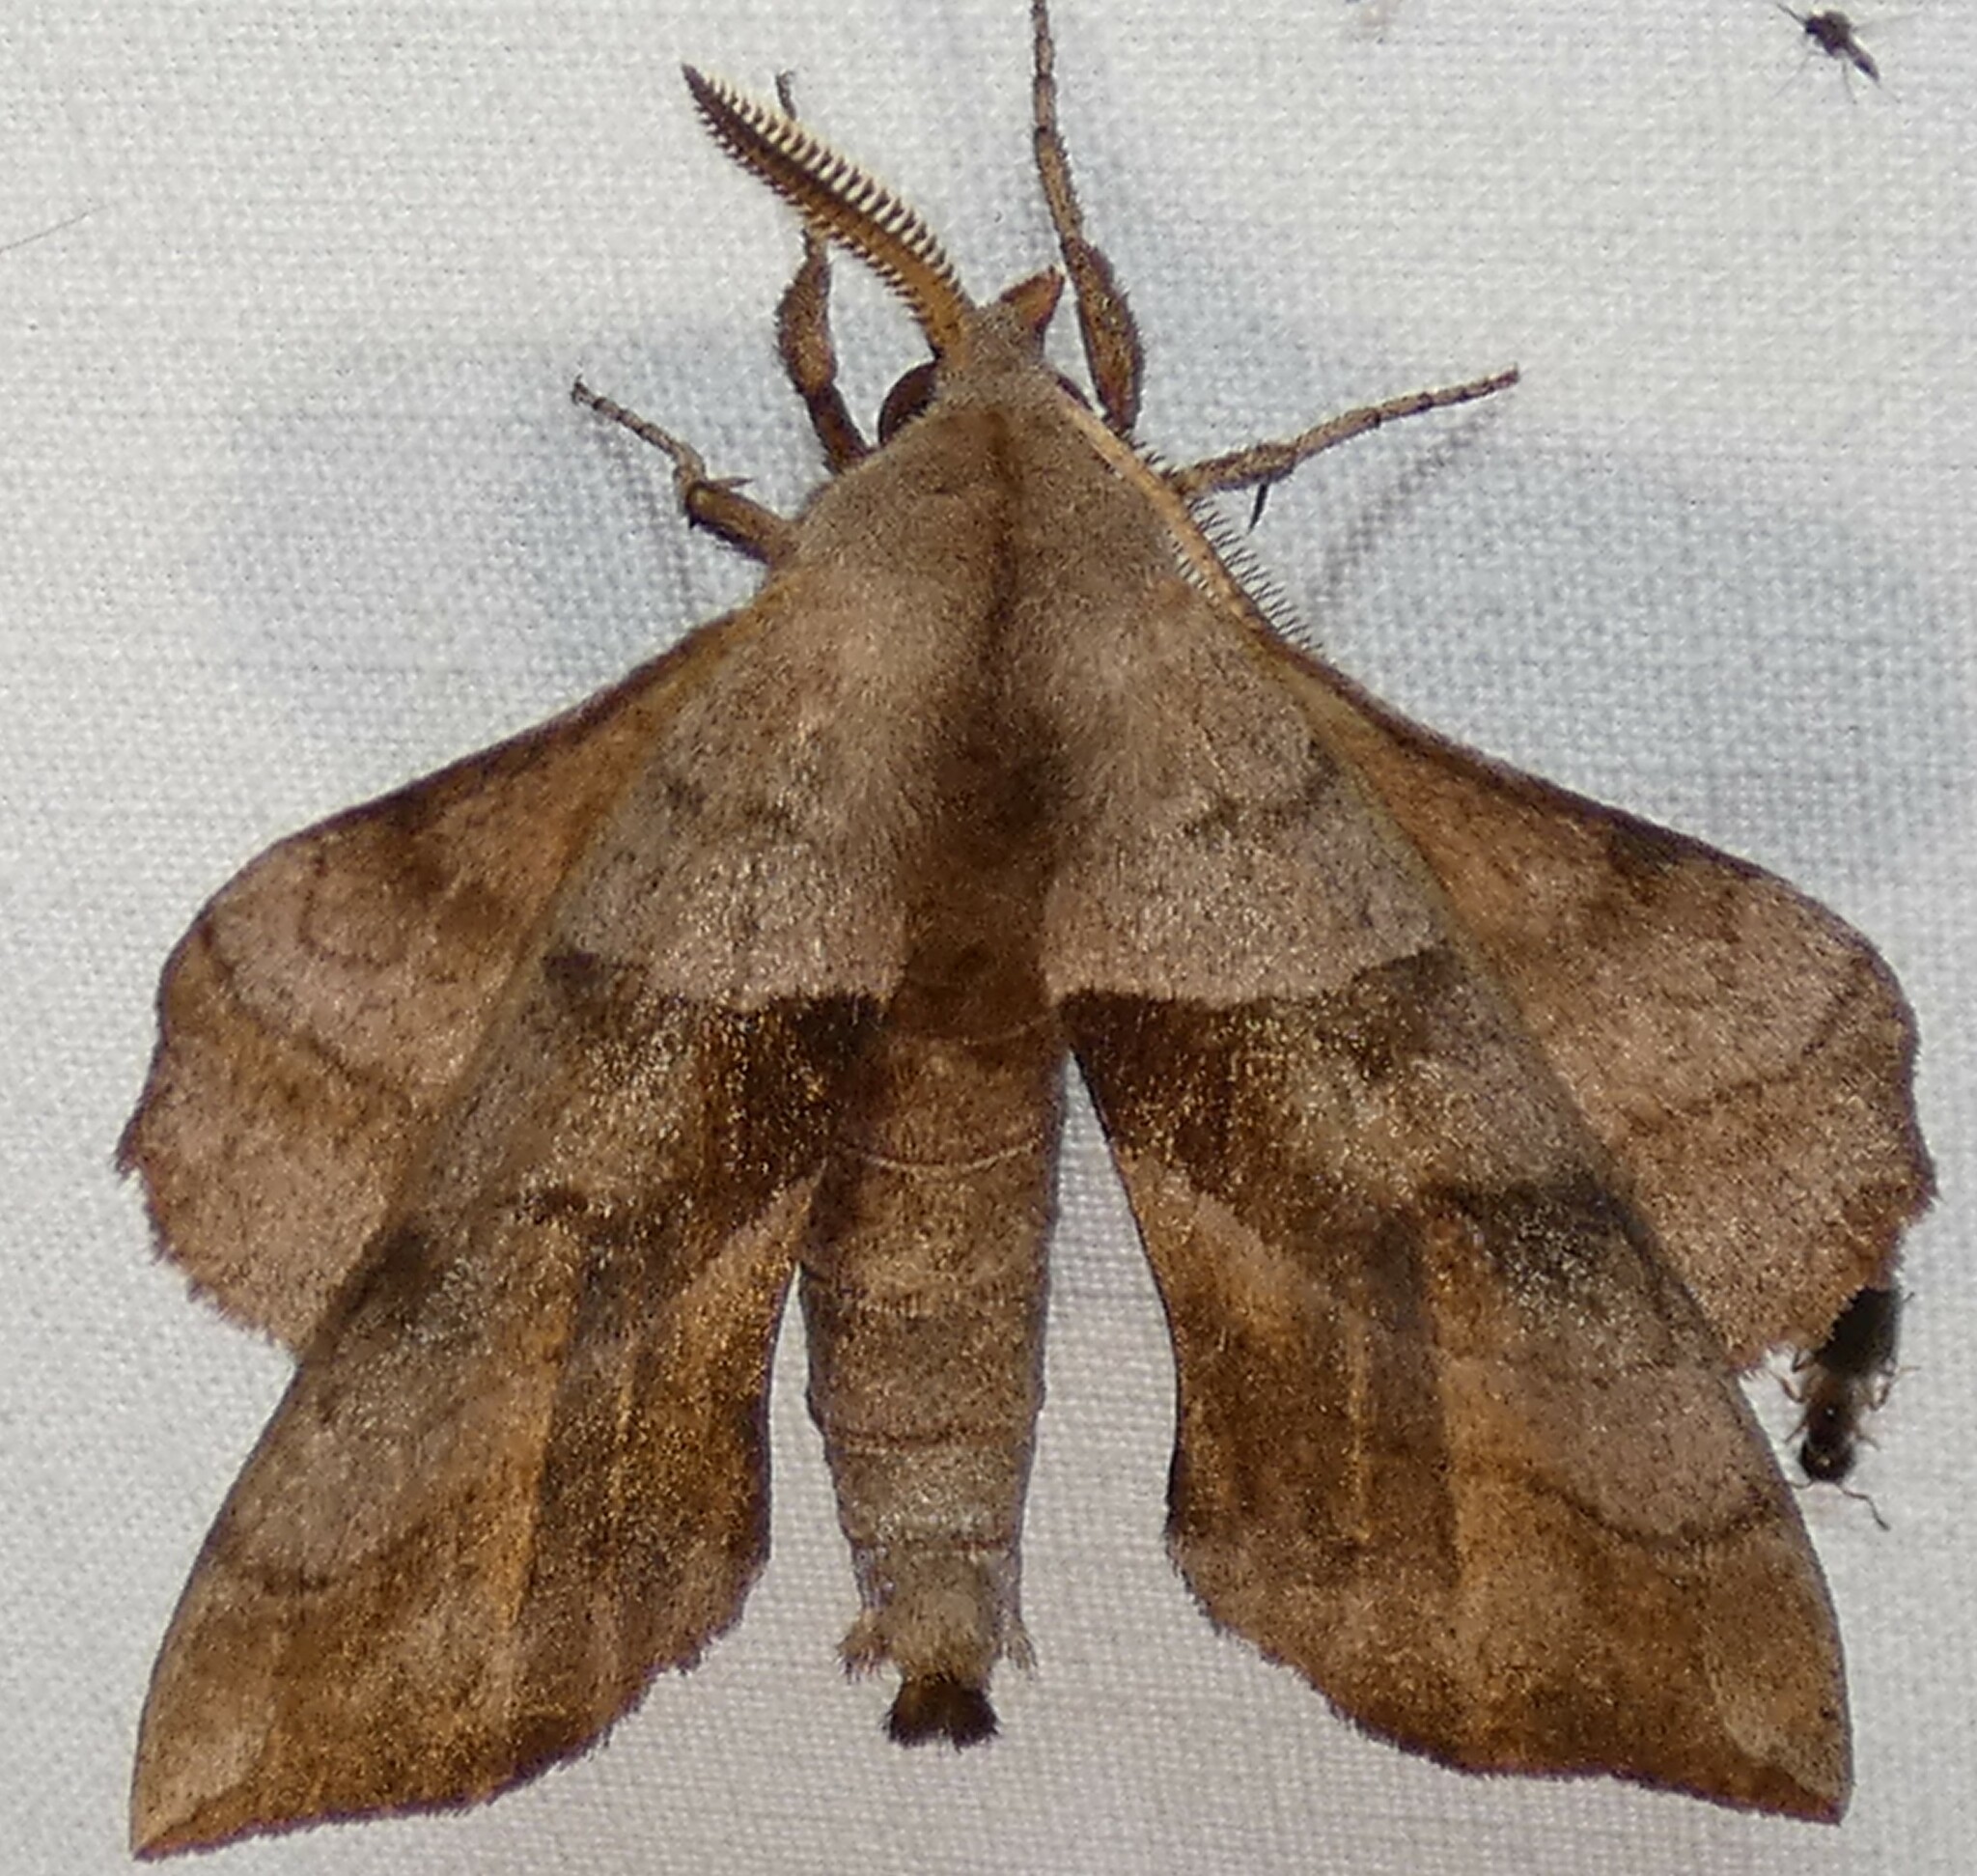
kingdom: Animalia
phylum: Arthropoda
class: Insecta
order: Lepidoptera
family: Sphingidae
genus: Amorpha
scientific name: Amorpha juglandis
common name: Walnut sphinx
